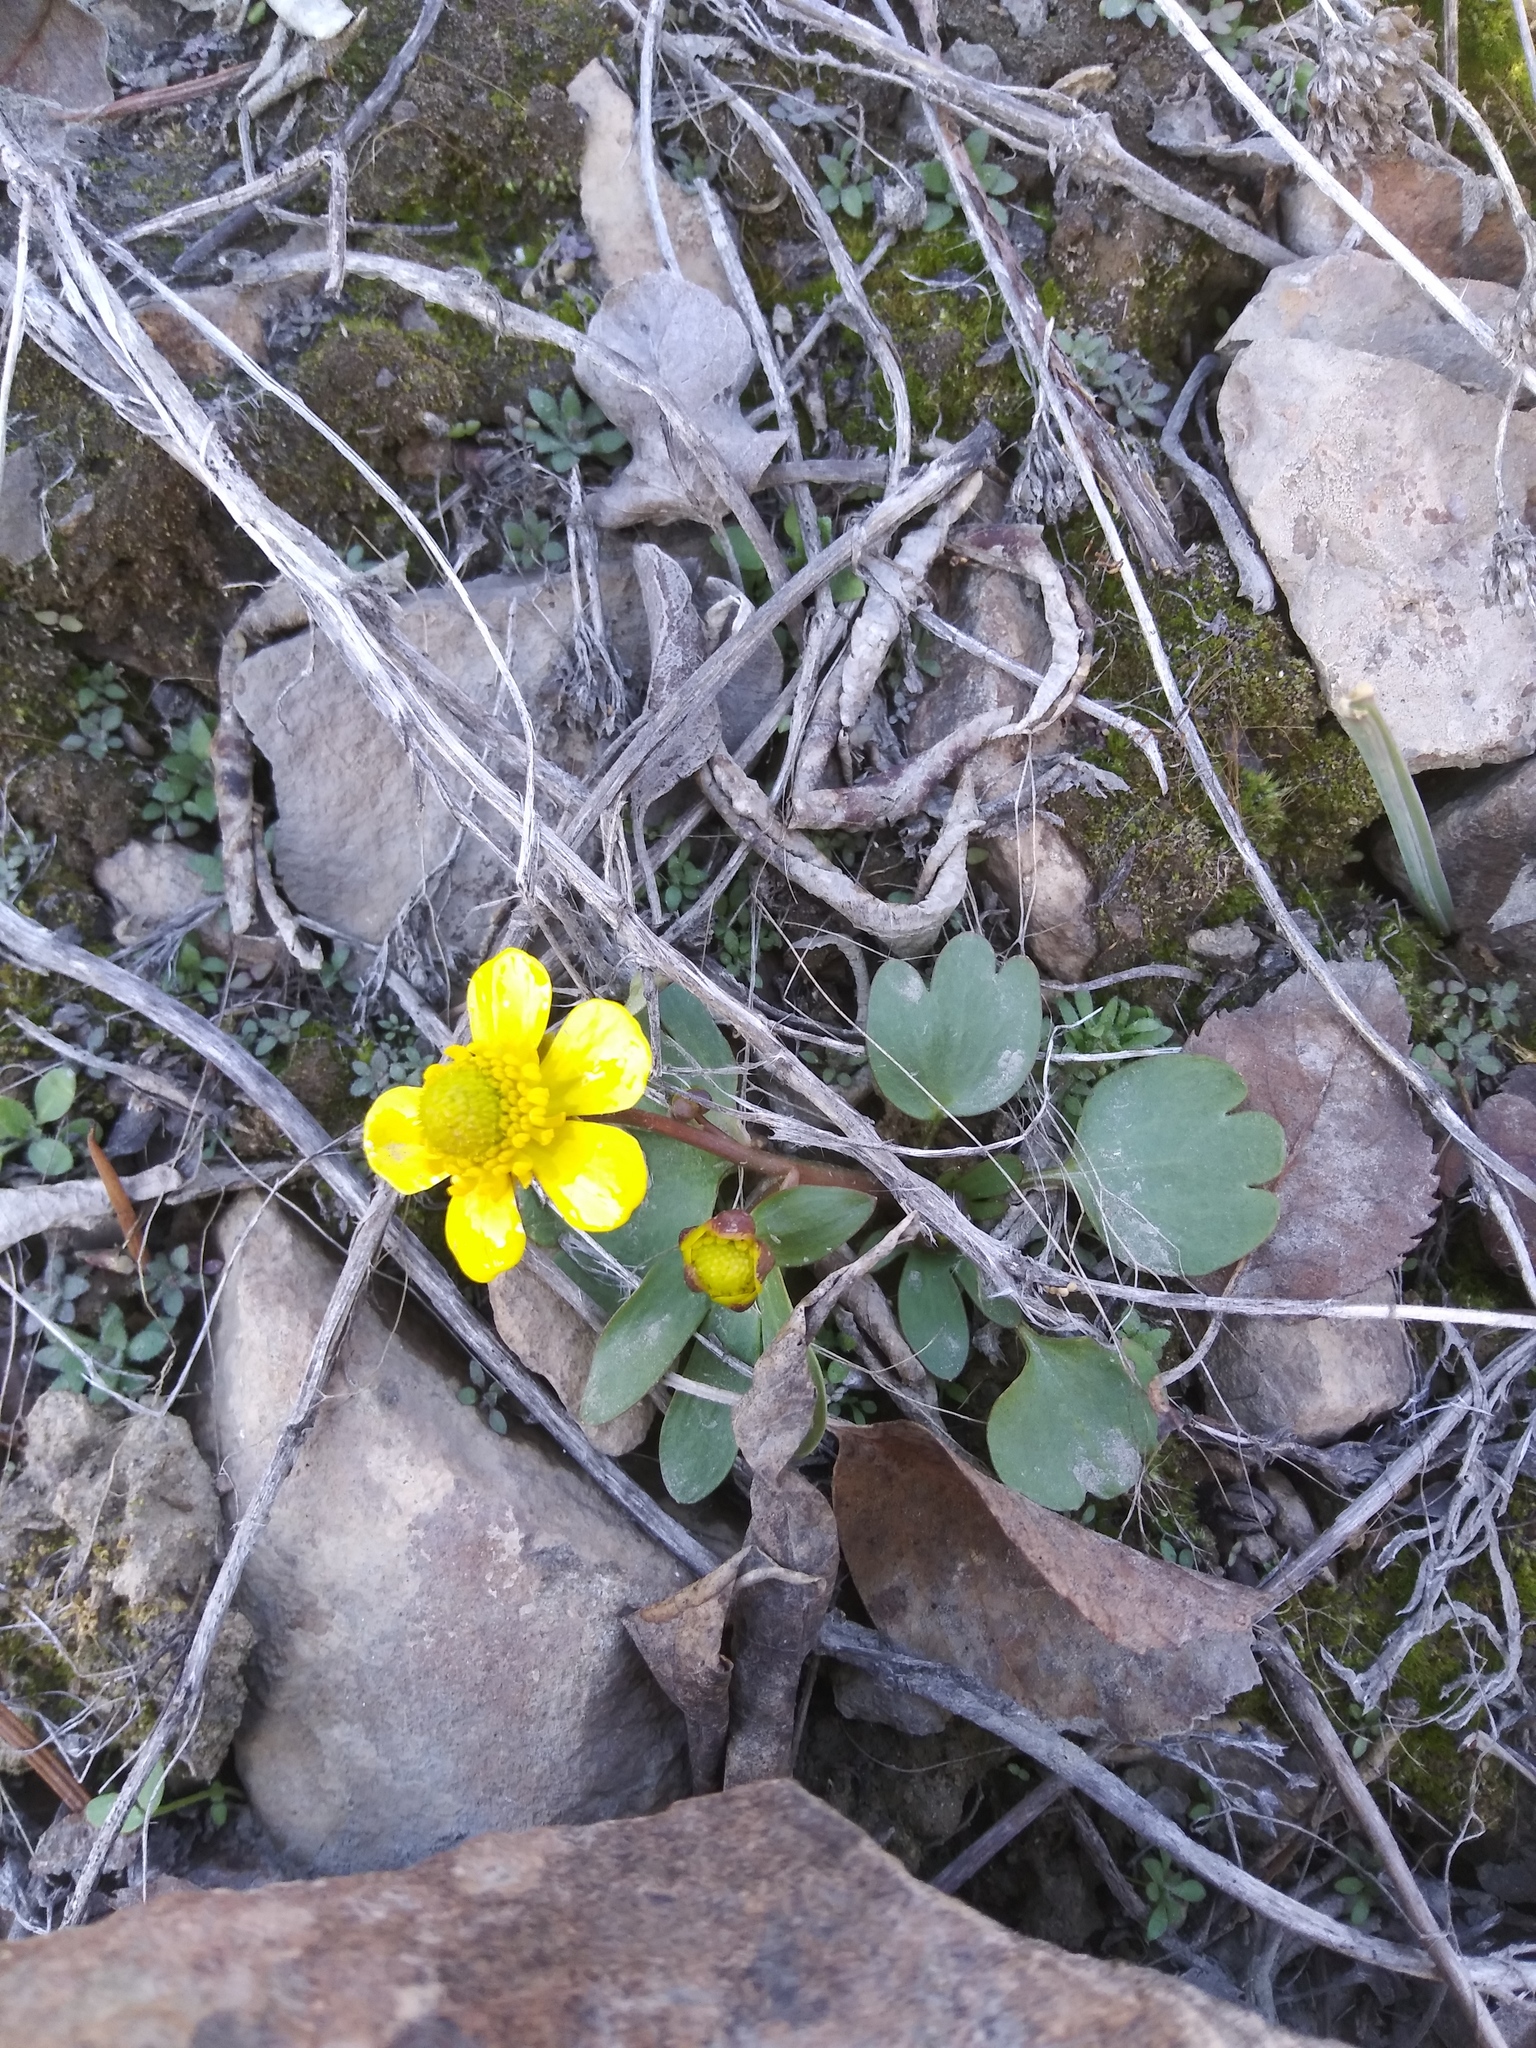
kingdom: Plantae
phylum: Tracheophyta
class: Magnoliopsida
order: Ranunculales
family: Ranunculaceae
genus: Ranunculus
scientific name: Ranunculus glaberrimus
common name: Sagebrush buttercup
